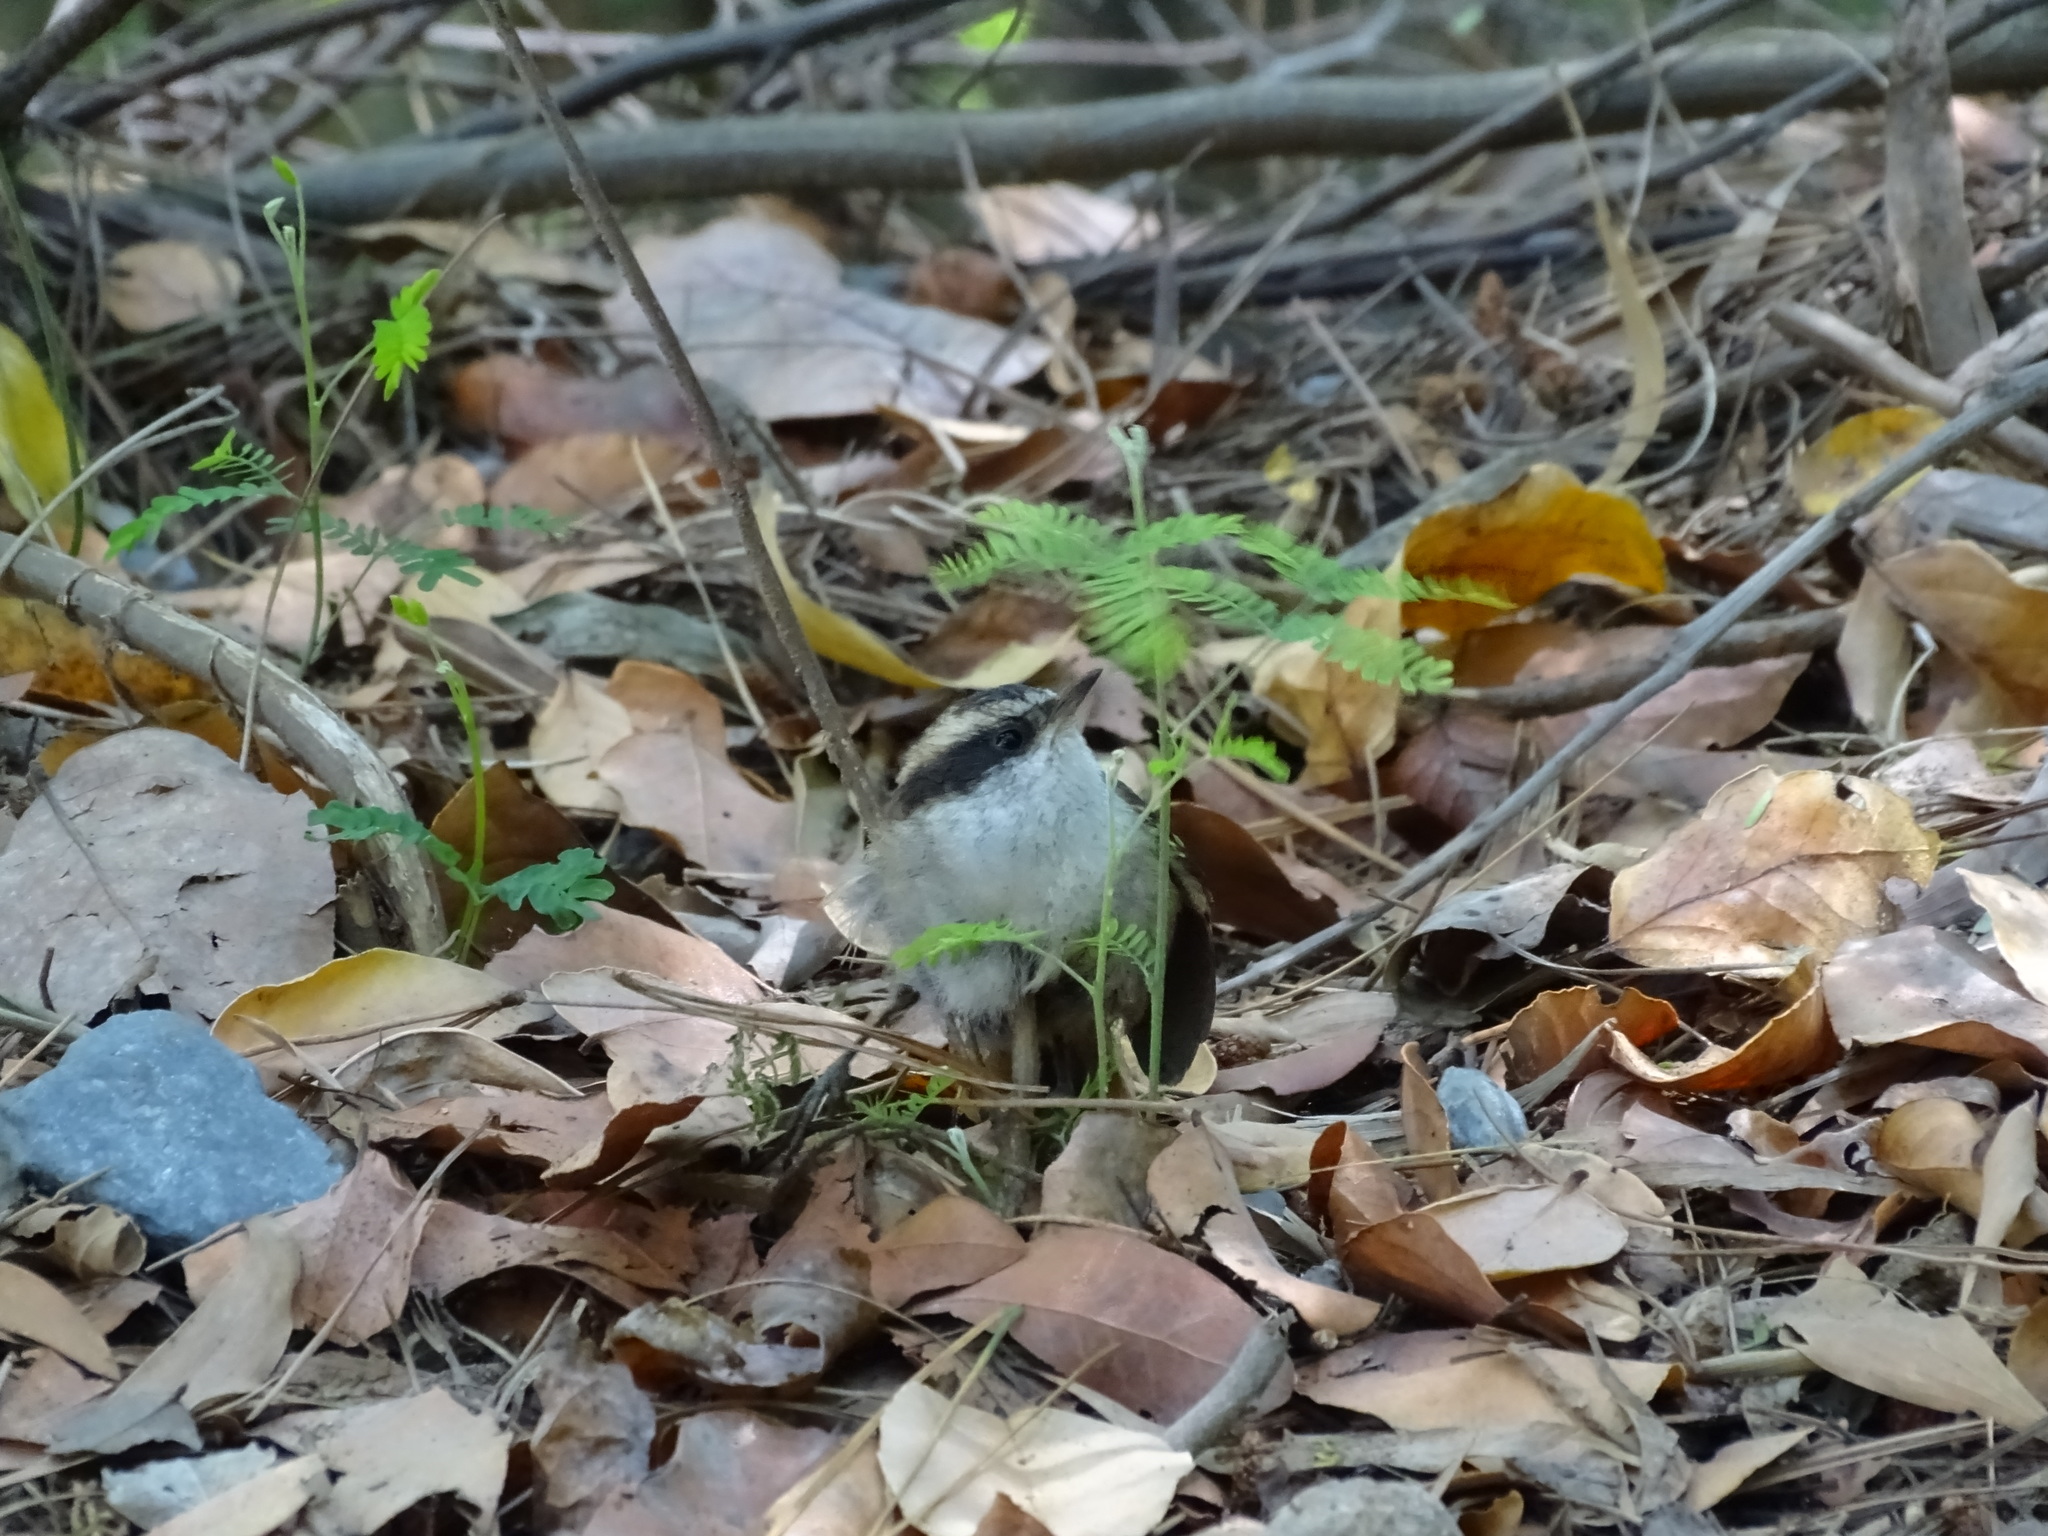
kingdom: Animalia
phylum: Chordata
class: Aves
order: Passeriformes
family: Furnariidae
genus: Aphrastura
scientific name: Aphrastura spinicauda
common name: Thorn-tailed rayadito
